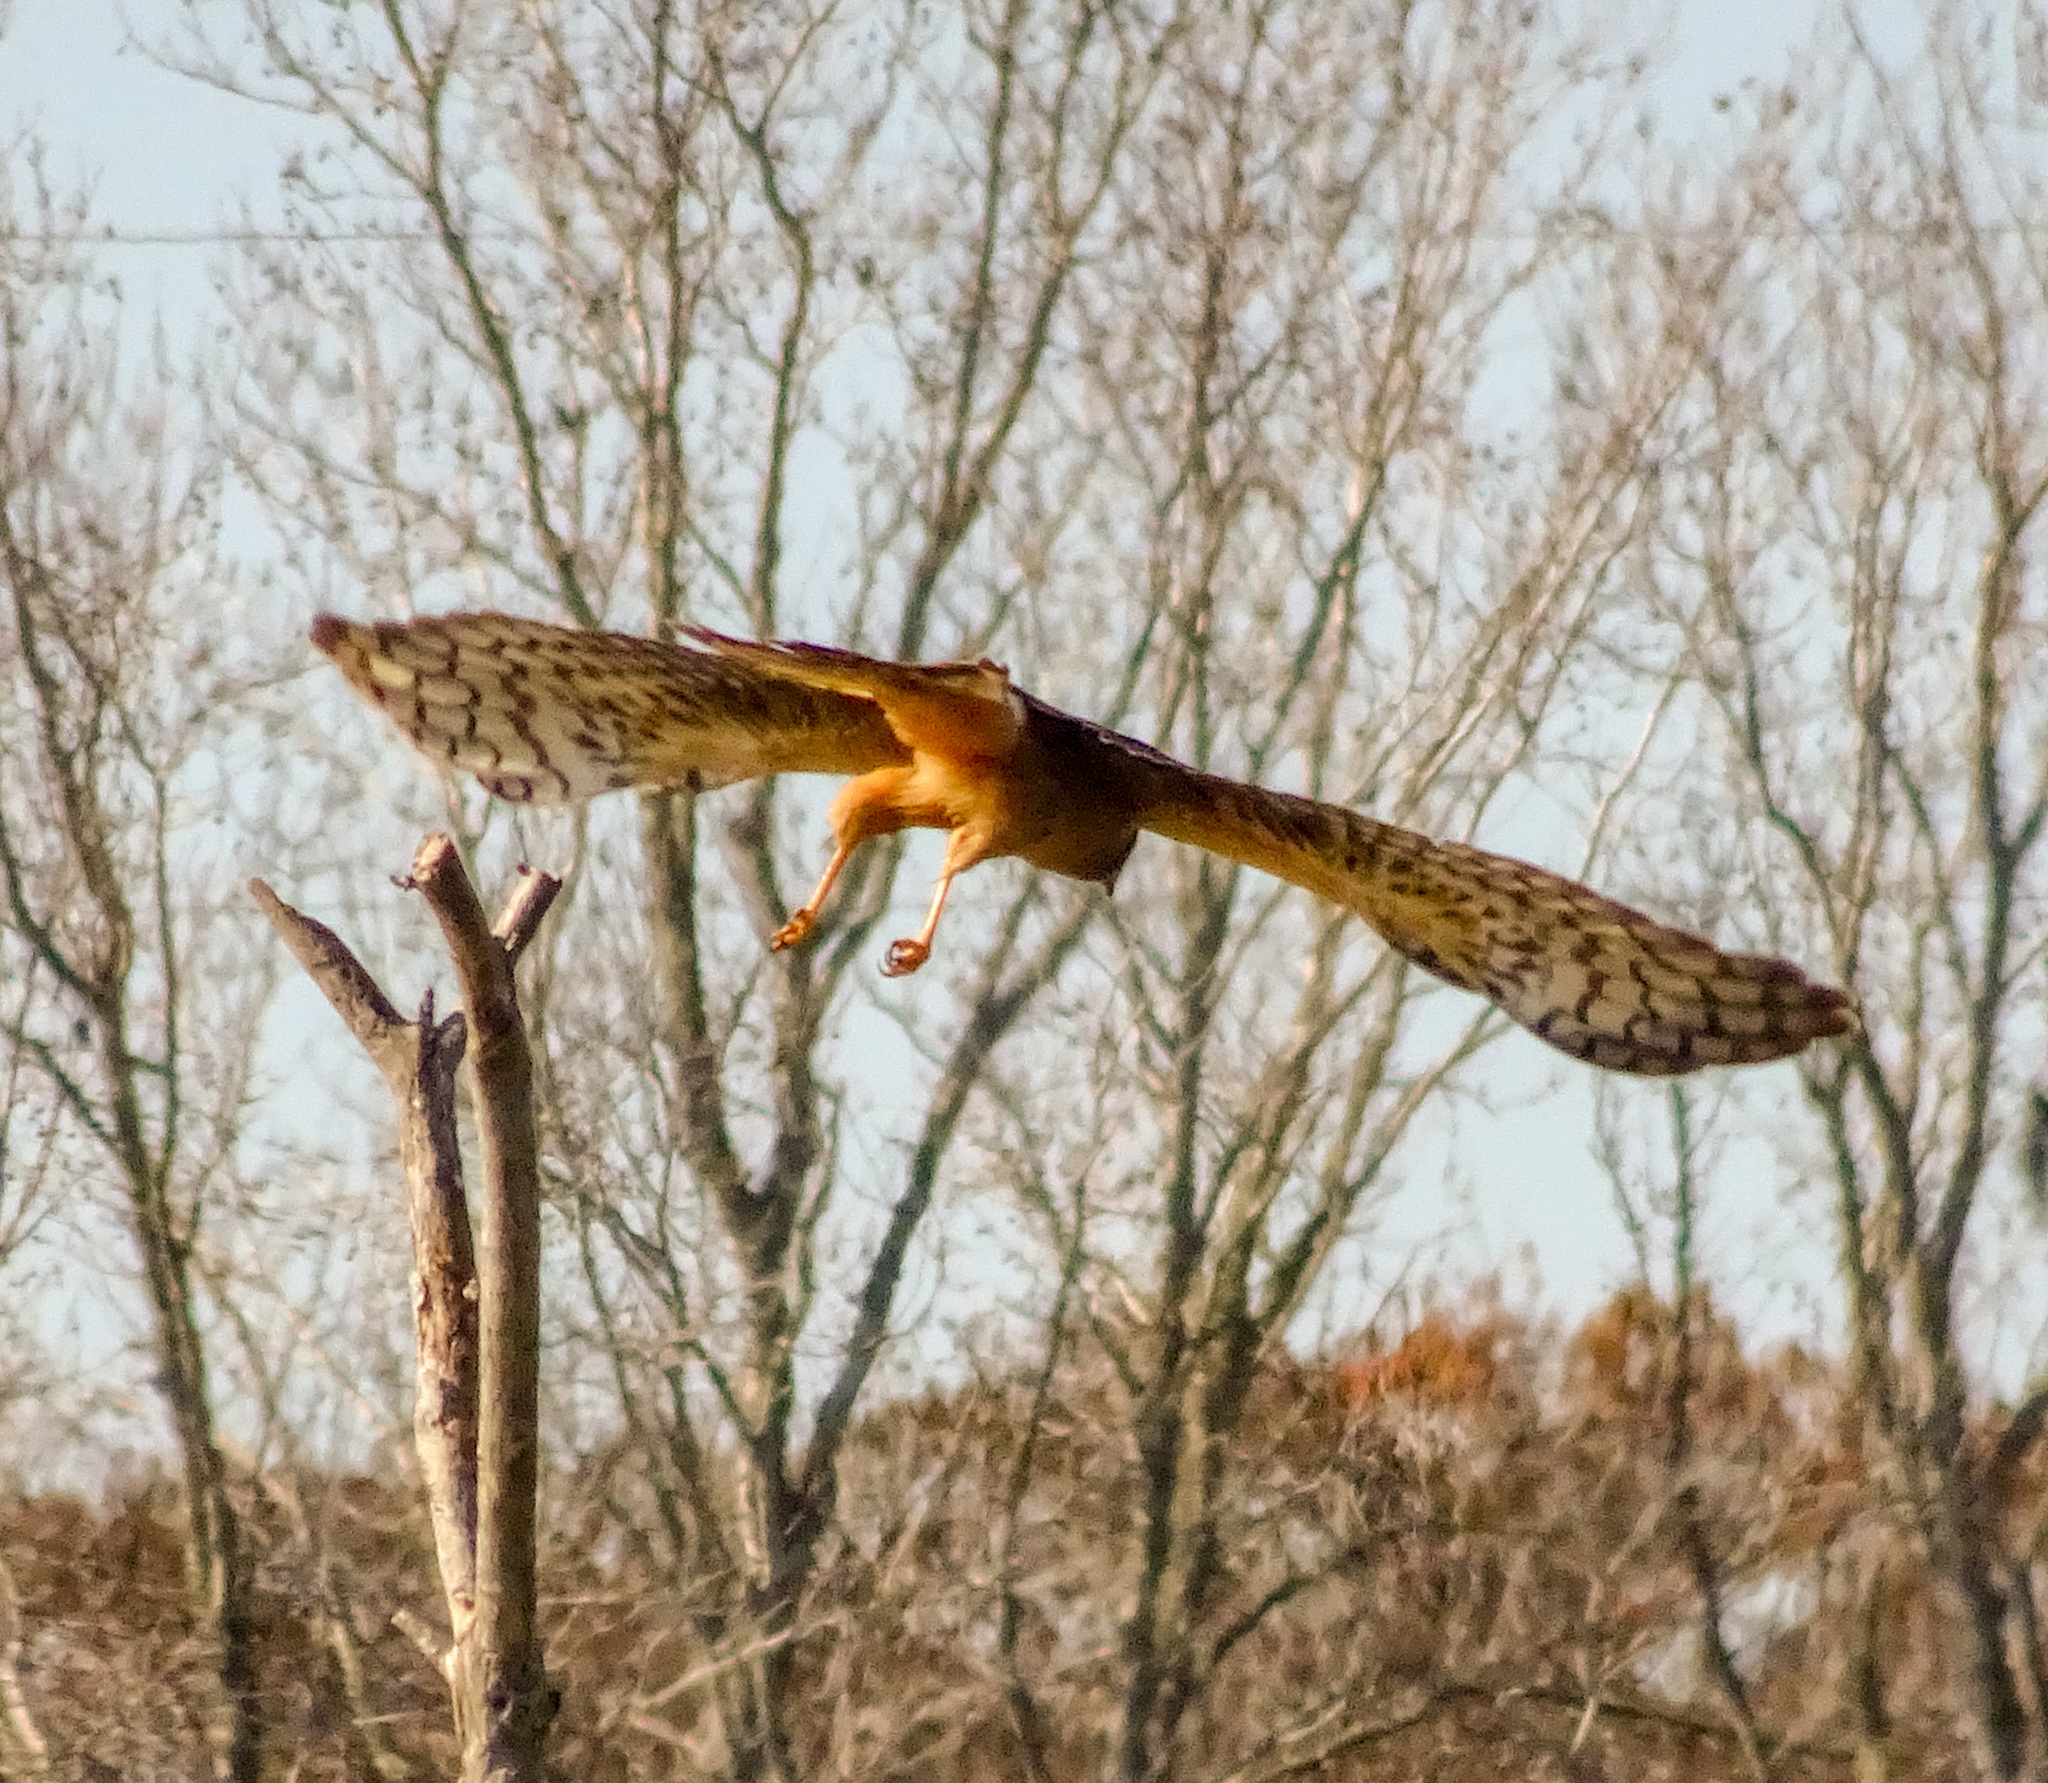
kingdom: Animalia
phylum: Chordata
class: Aves
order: Accipitriformes
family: Accipitridae
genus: Circus
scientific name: Circus cyaneus
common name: Hen harrier
